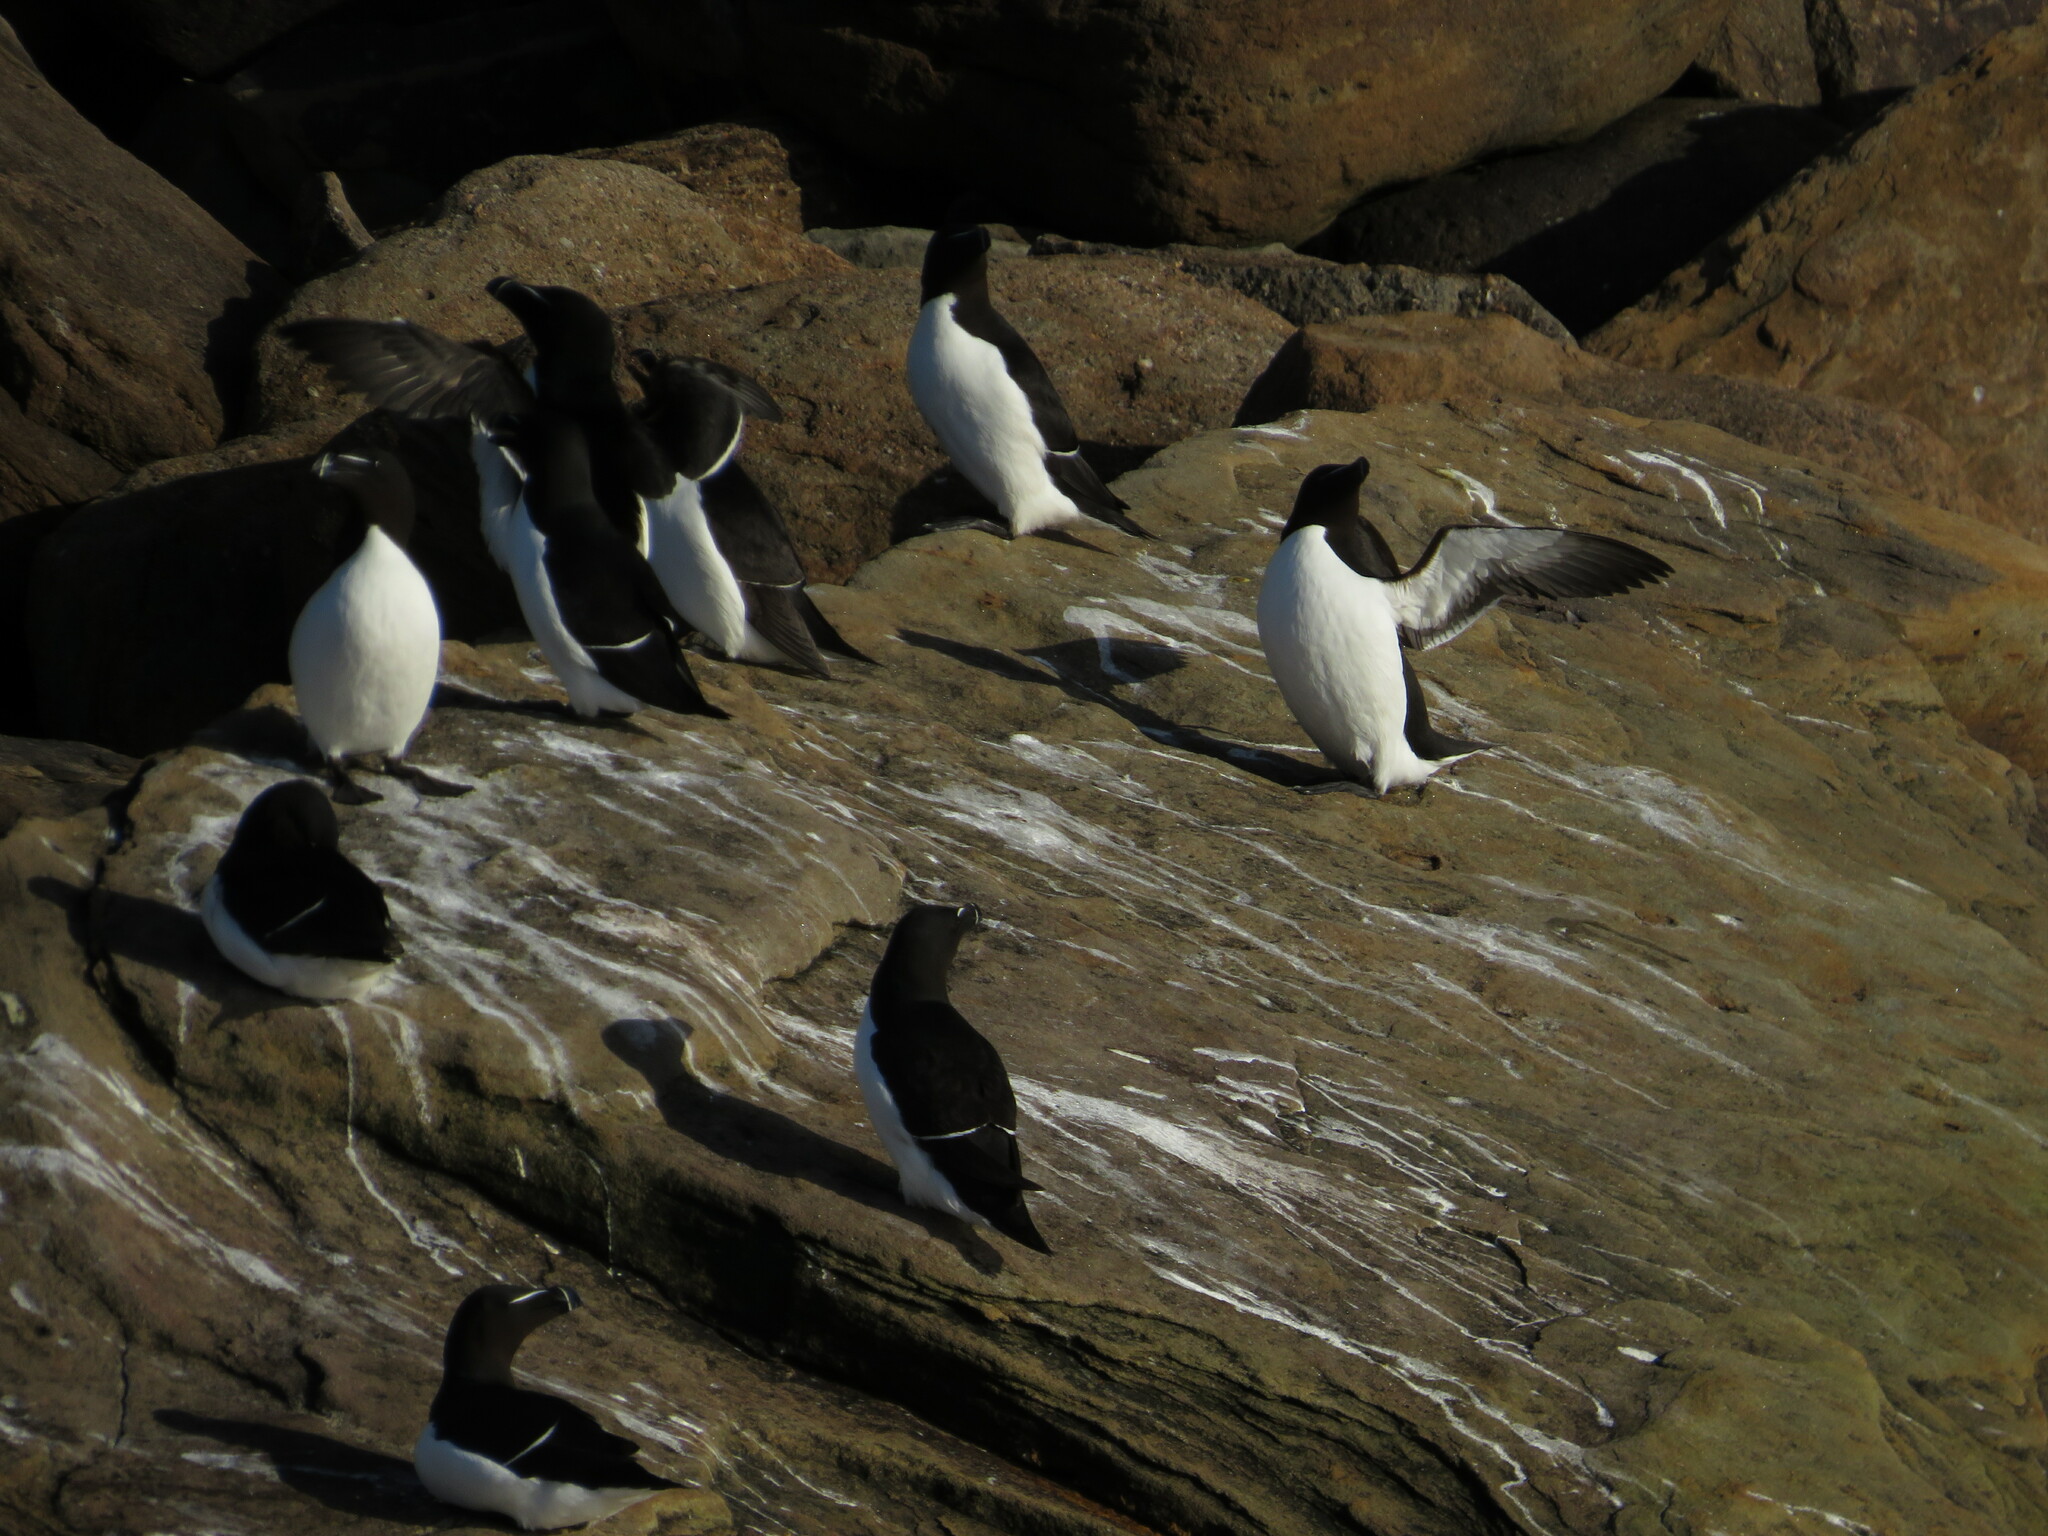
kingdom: Animalia
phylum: Chordata
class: Aves
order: Charadriiformes
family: Alcidae
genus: Alca
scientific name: Alca torda
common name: Razorbill
